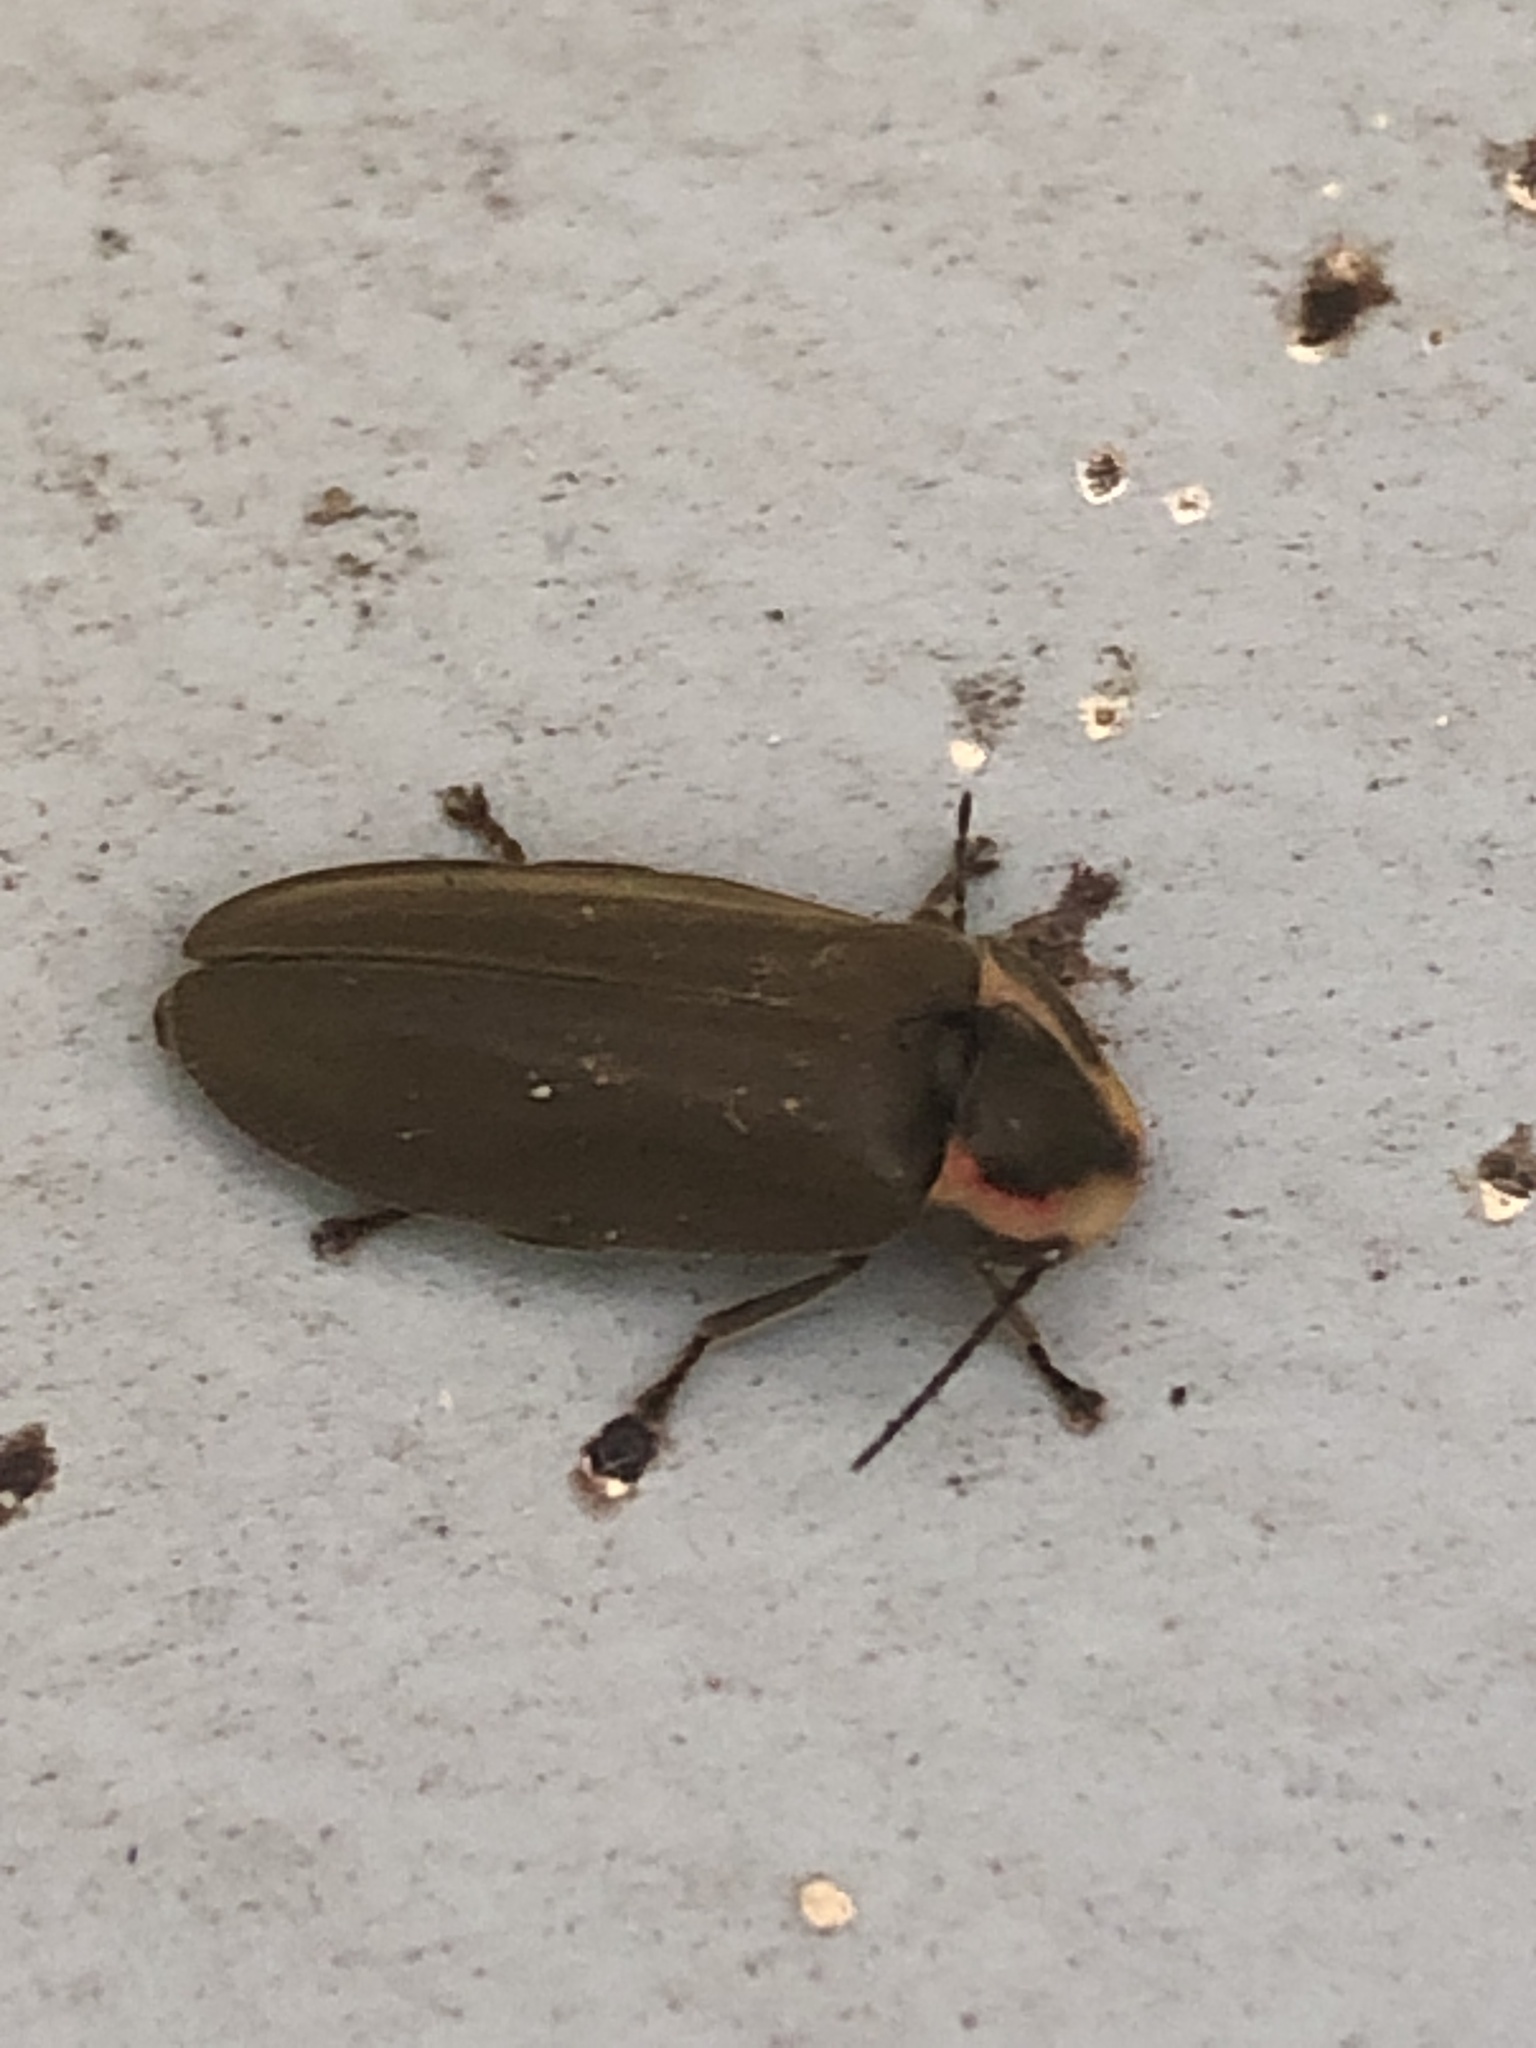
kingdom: Animalia
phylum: Arthropoda
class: Insecta
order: Coleoptera
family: Lampyridae
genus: Photinus
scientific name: Photinus corrusca
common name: Winter firefly
